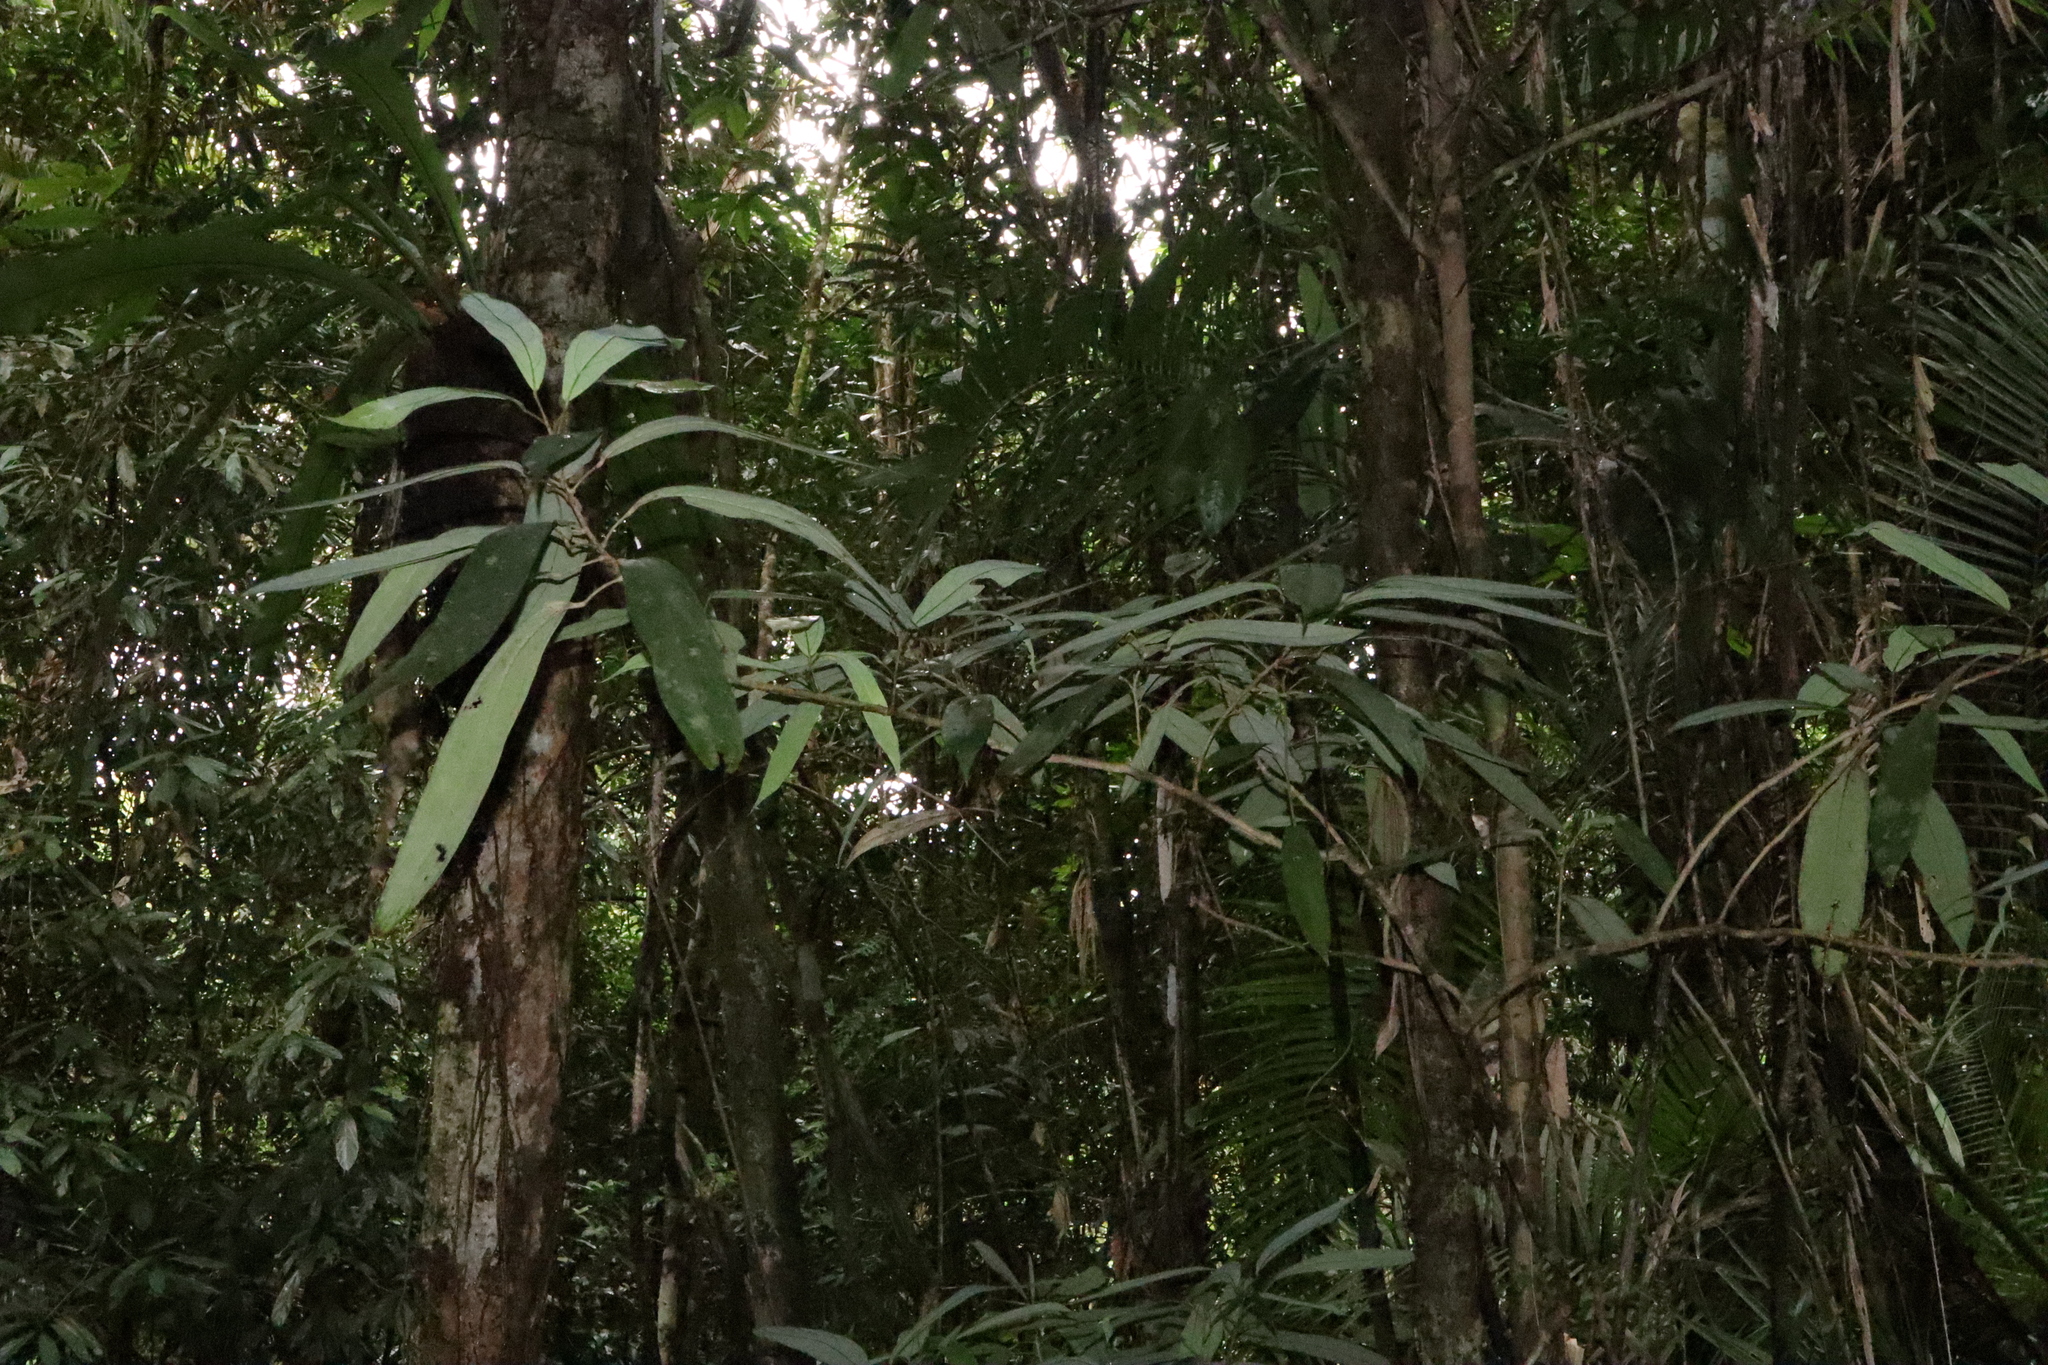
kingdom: Plantae
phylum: Tracheophyta
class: Magnoliopsida
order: Malpighiales
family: Achariaceae
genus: Ryparosa
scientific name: Ryparosa kurrangii
